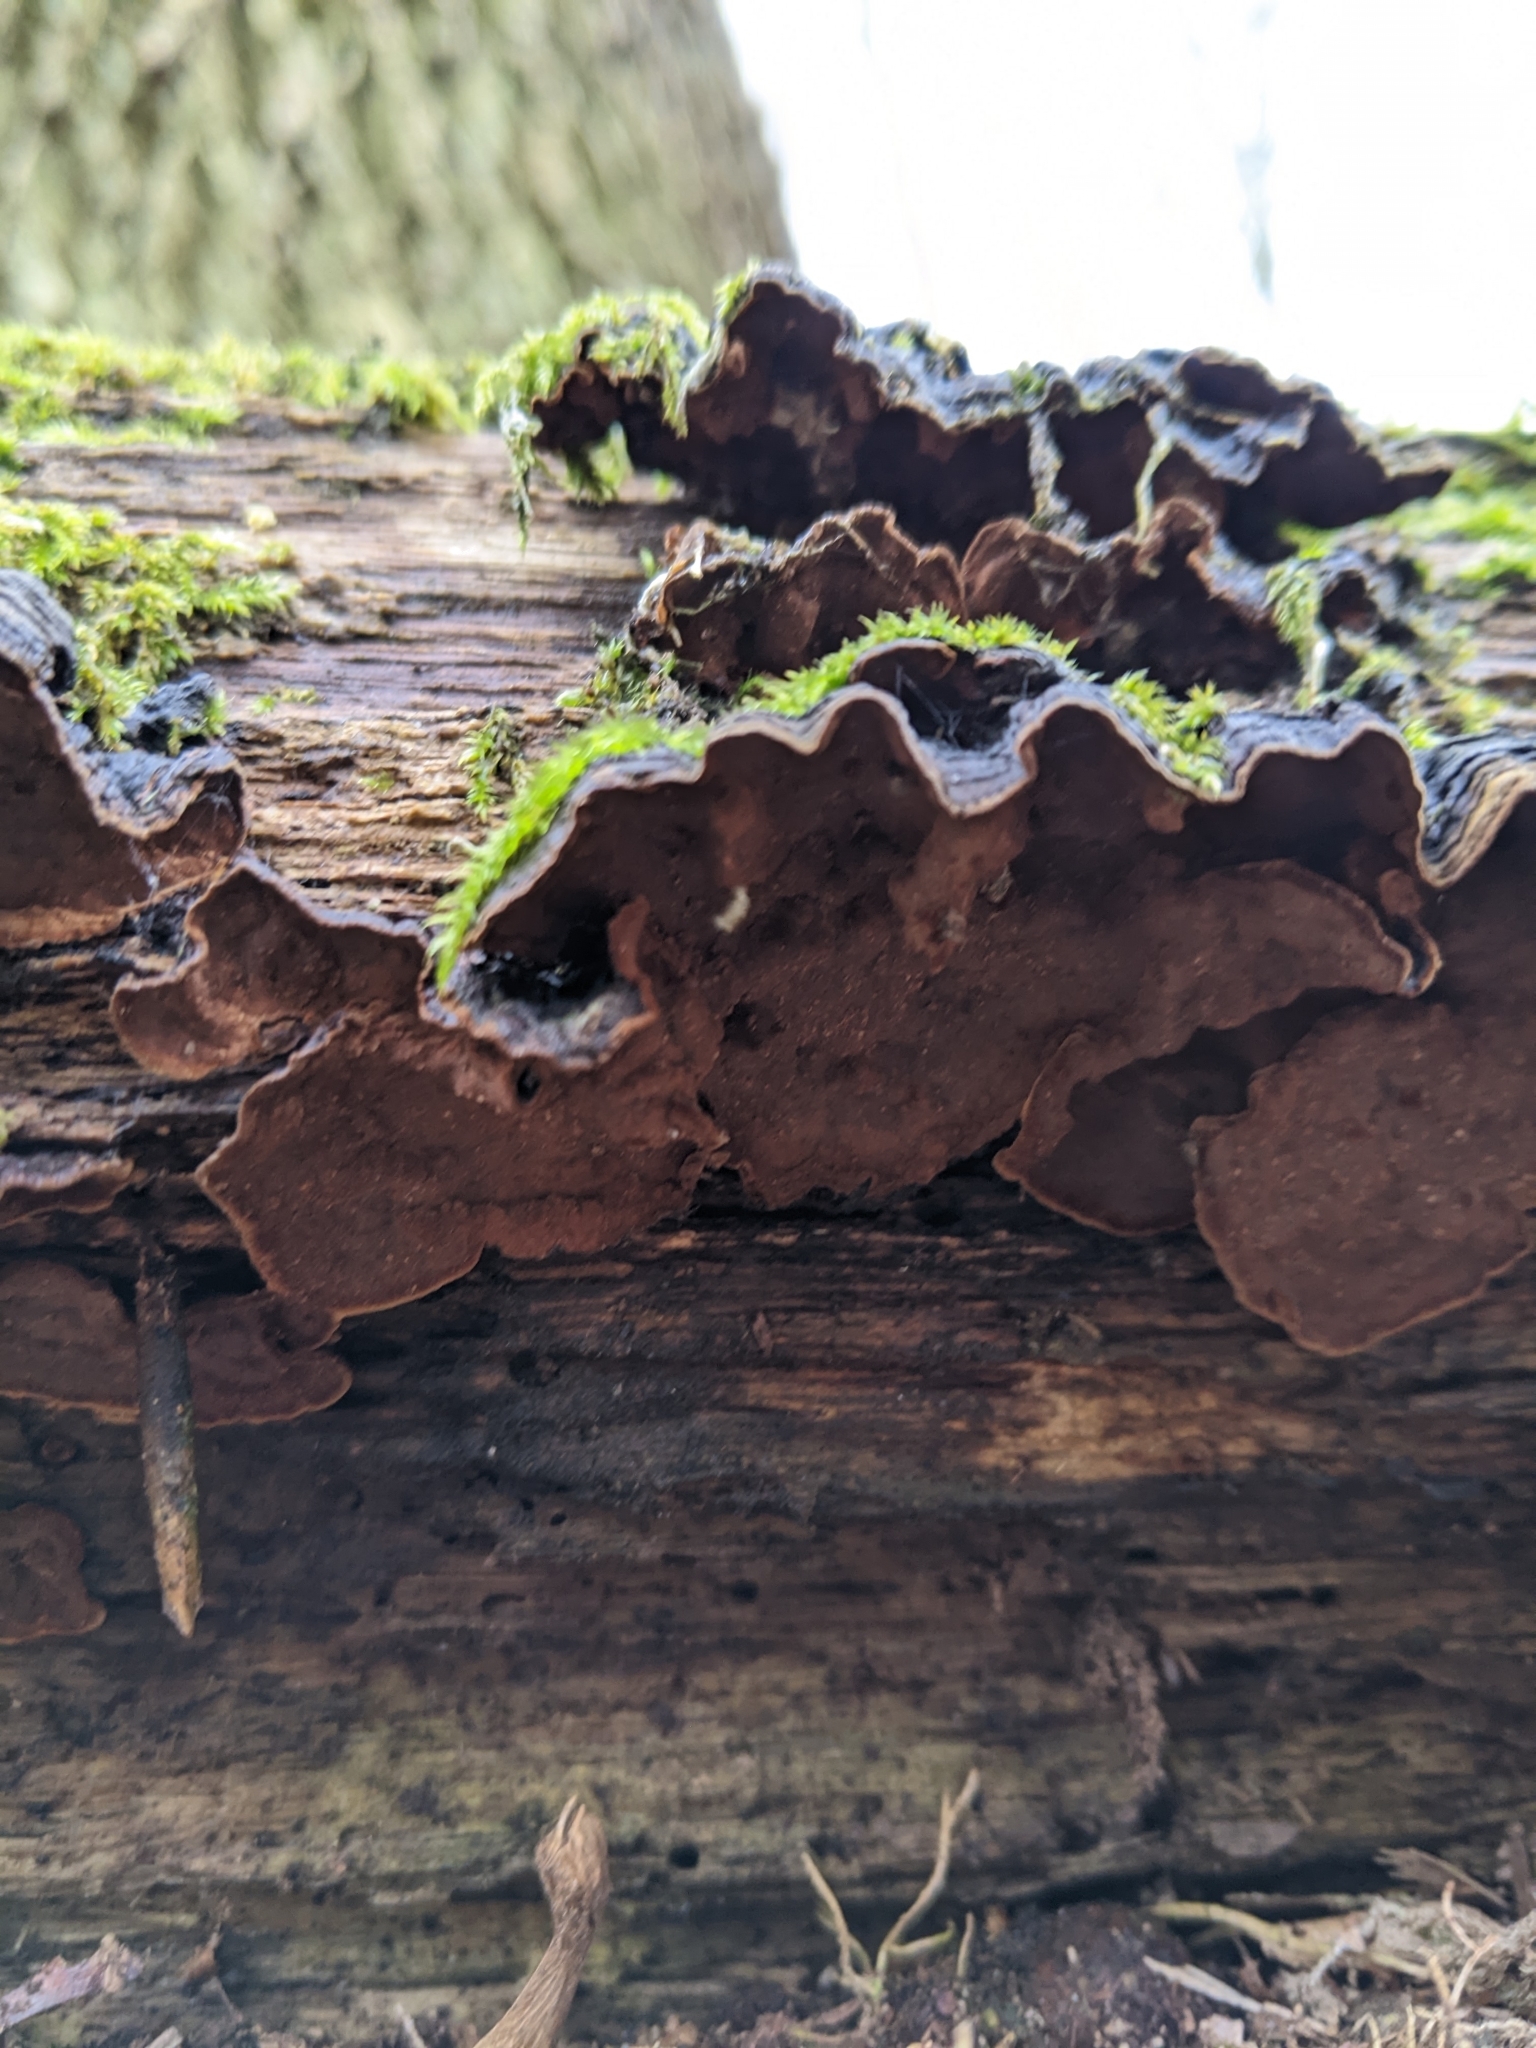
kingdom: Fungi
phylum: Basidiomycota
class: Agaricomycetes
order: Hymenochaetales
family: Hymenochaetaceae
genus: Hymenochaete
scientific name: Hymenochaete rubiginosa
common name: Oak curtain crust
